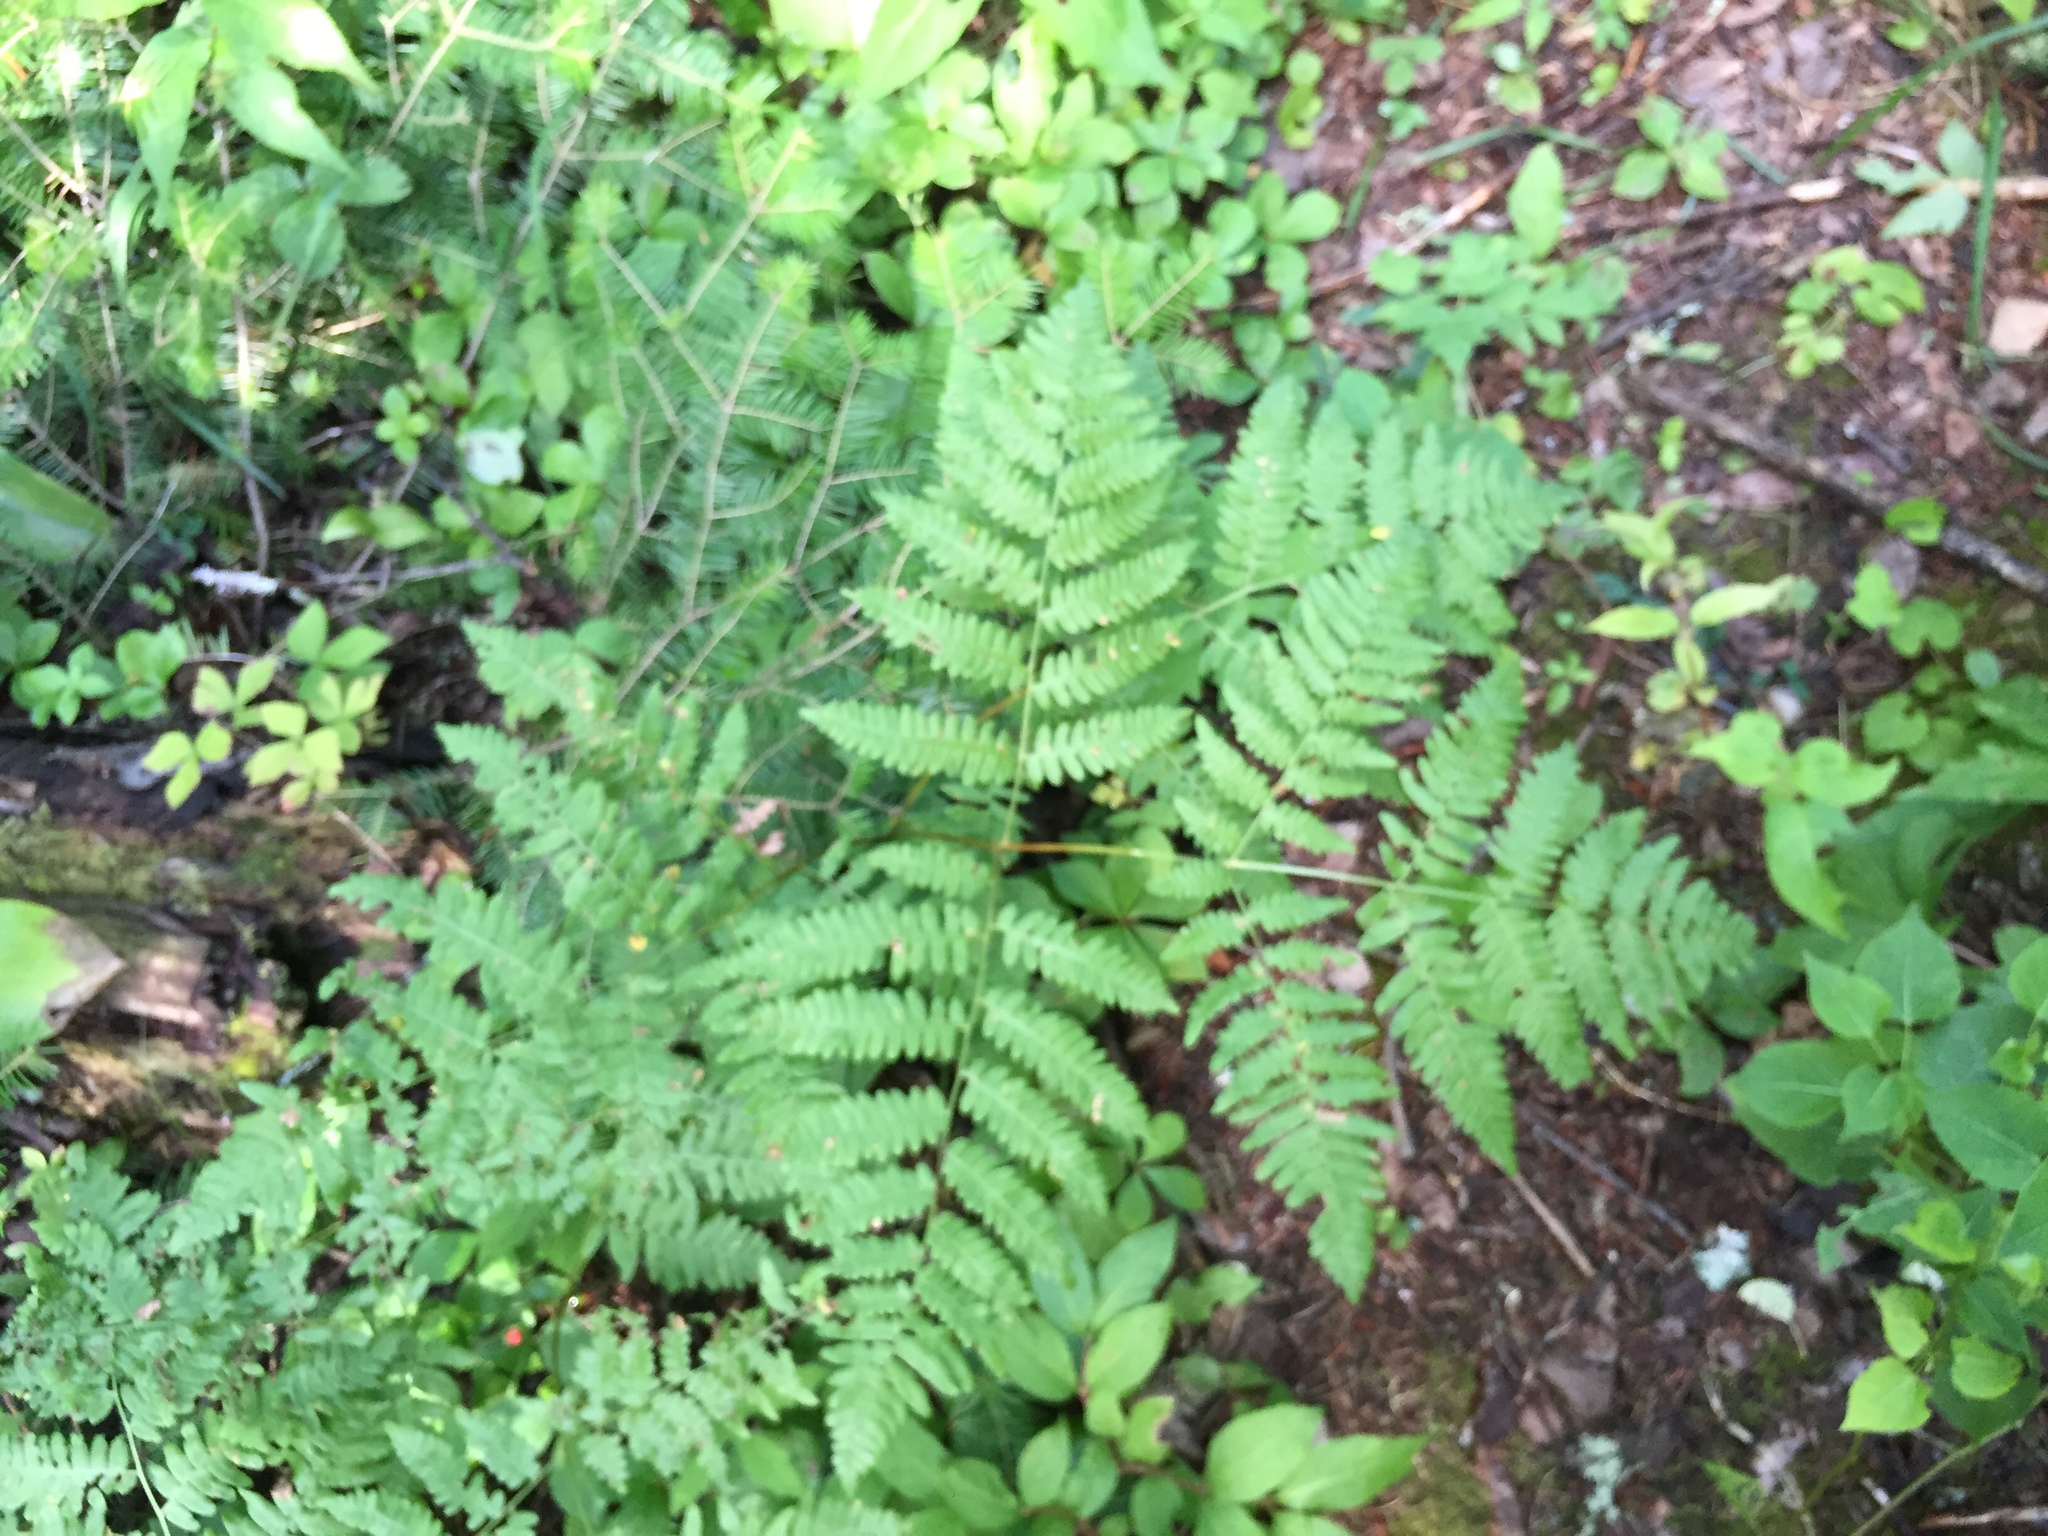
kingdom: Plantae
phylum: Tracheophyta
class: Polypodiopsida
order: Polypodiales
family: Dennstaedtiaceae
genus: Pteridium
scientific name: Pteridium aquilinum
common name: Bracken
